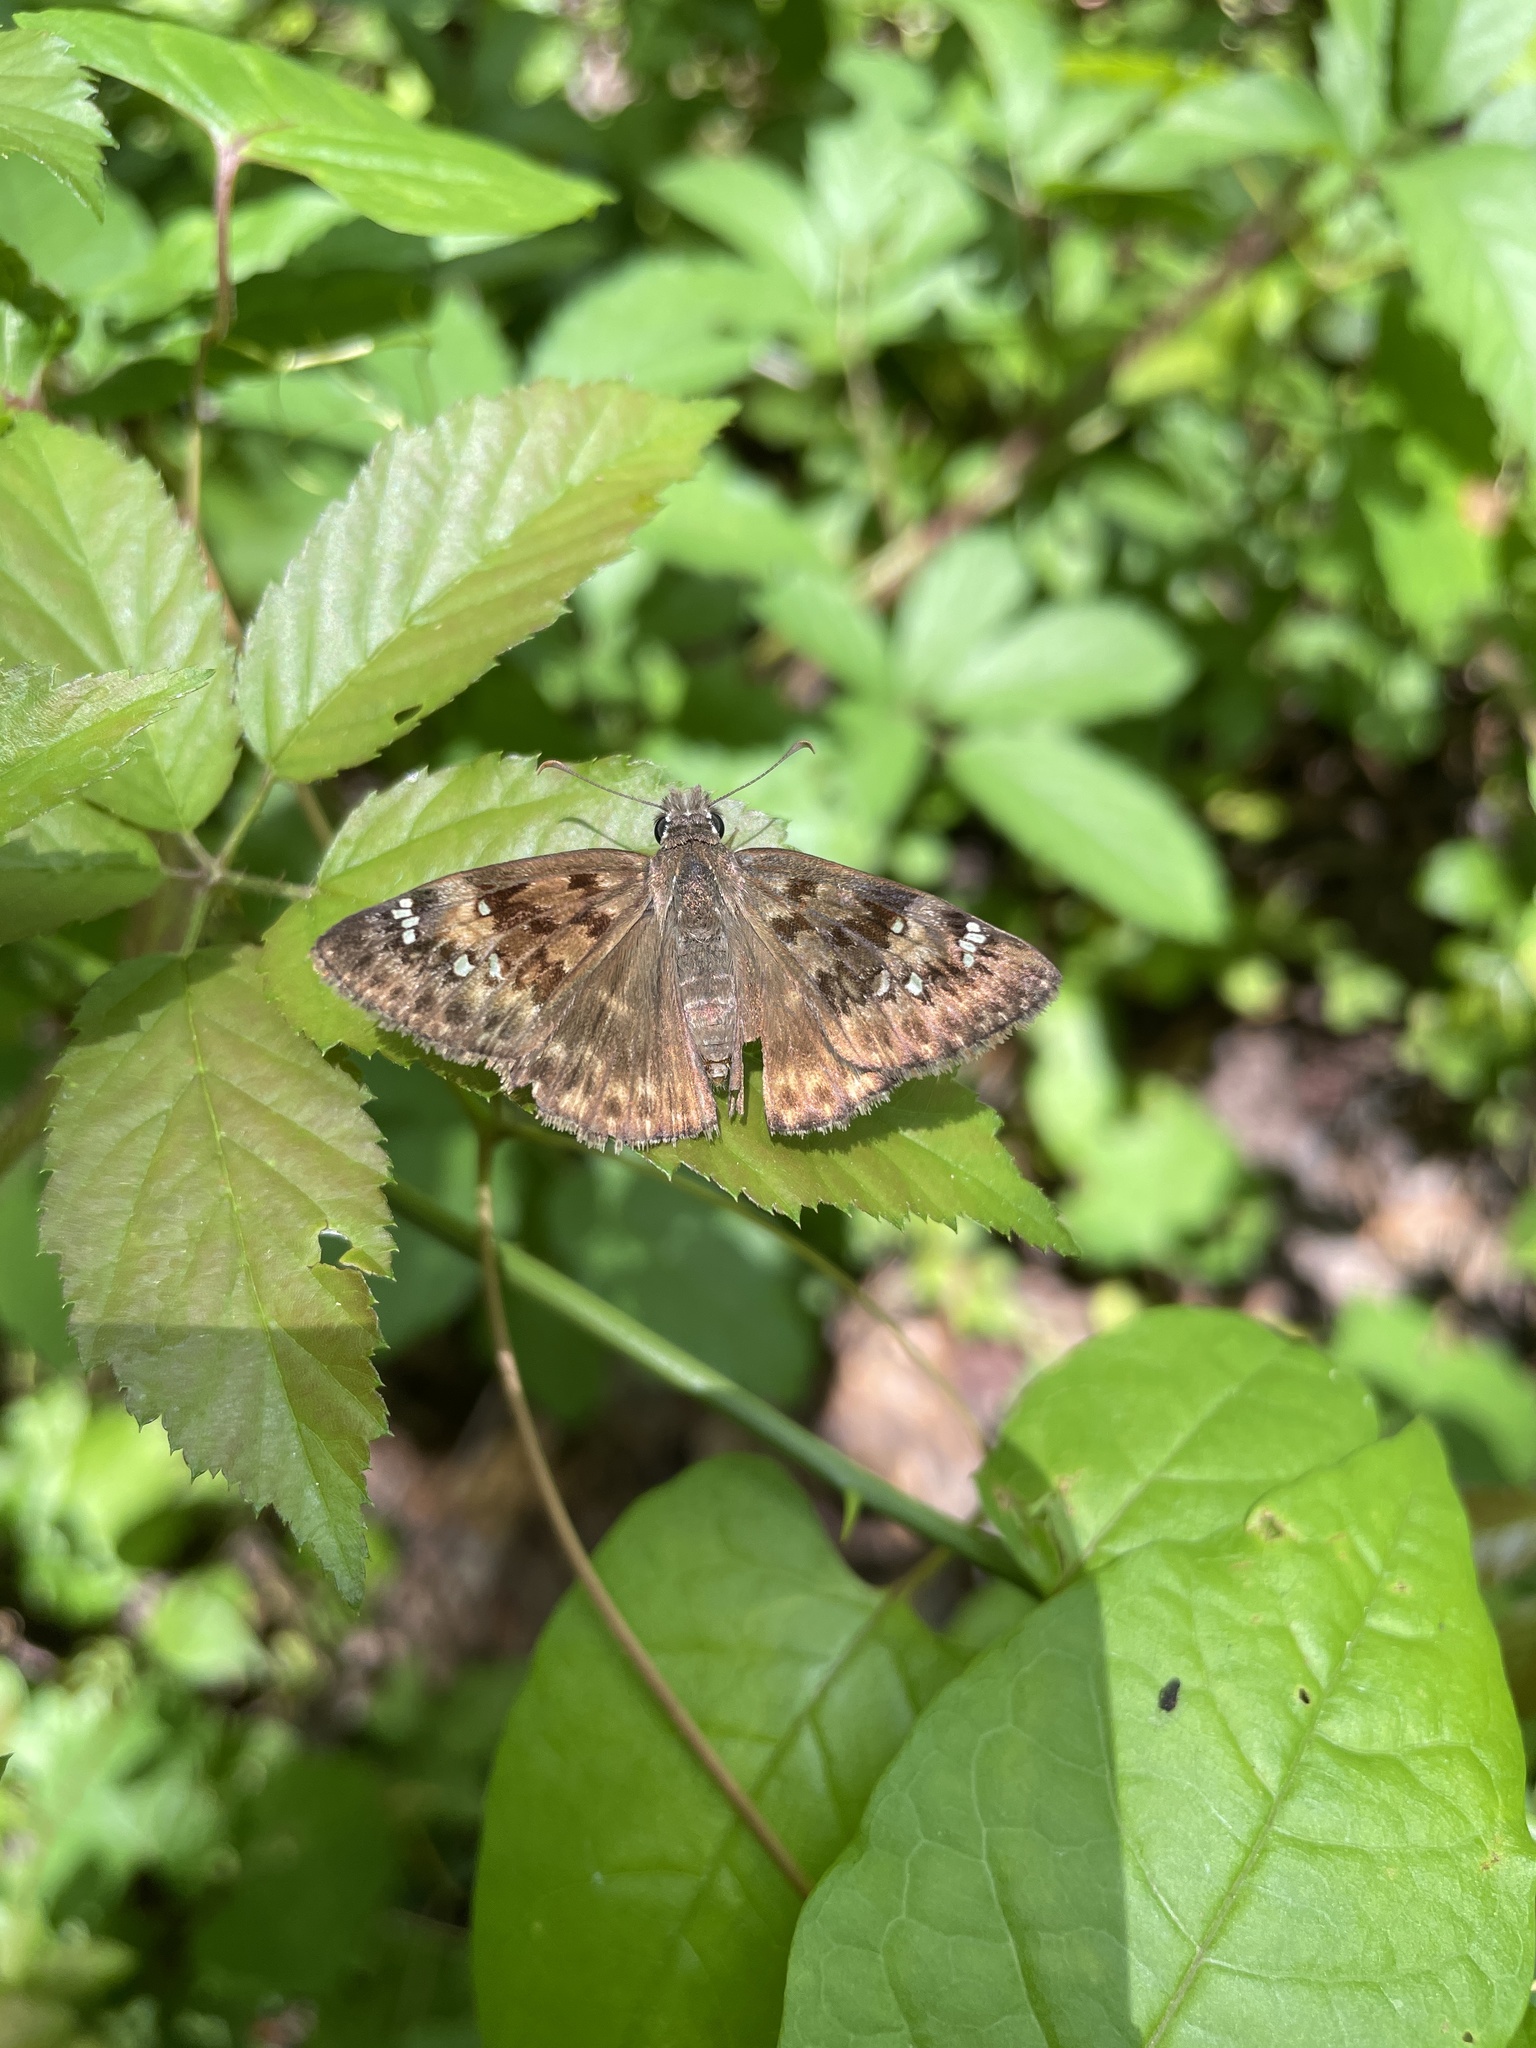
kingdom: Animalia
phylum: Arthropoda
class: Insecta
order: Lepidoptera
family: Hesperiidae
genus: Erynnis
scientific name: Erynnis horatius
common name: Horace's duskywing
